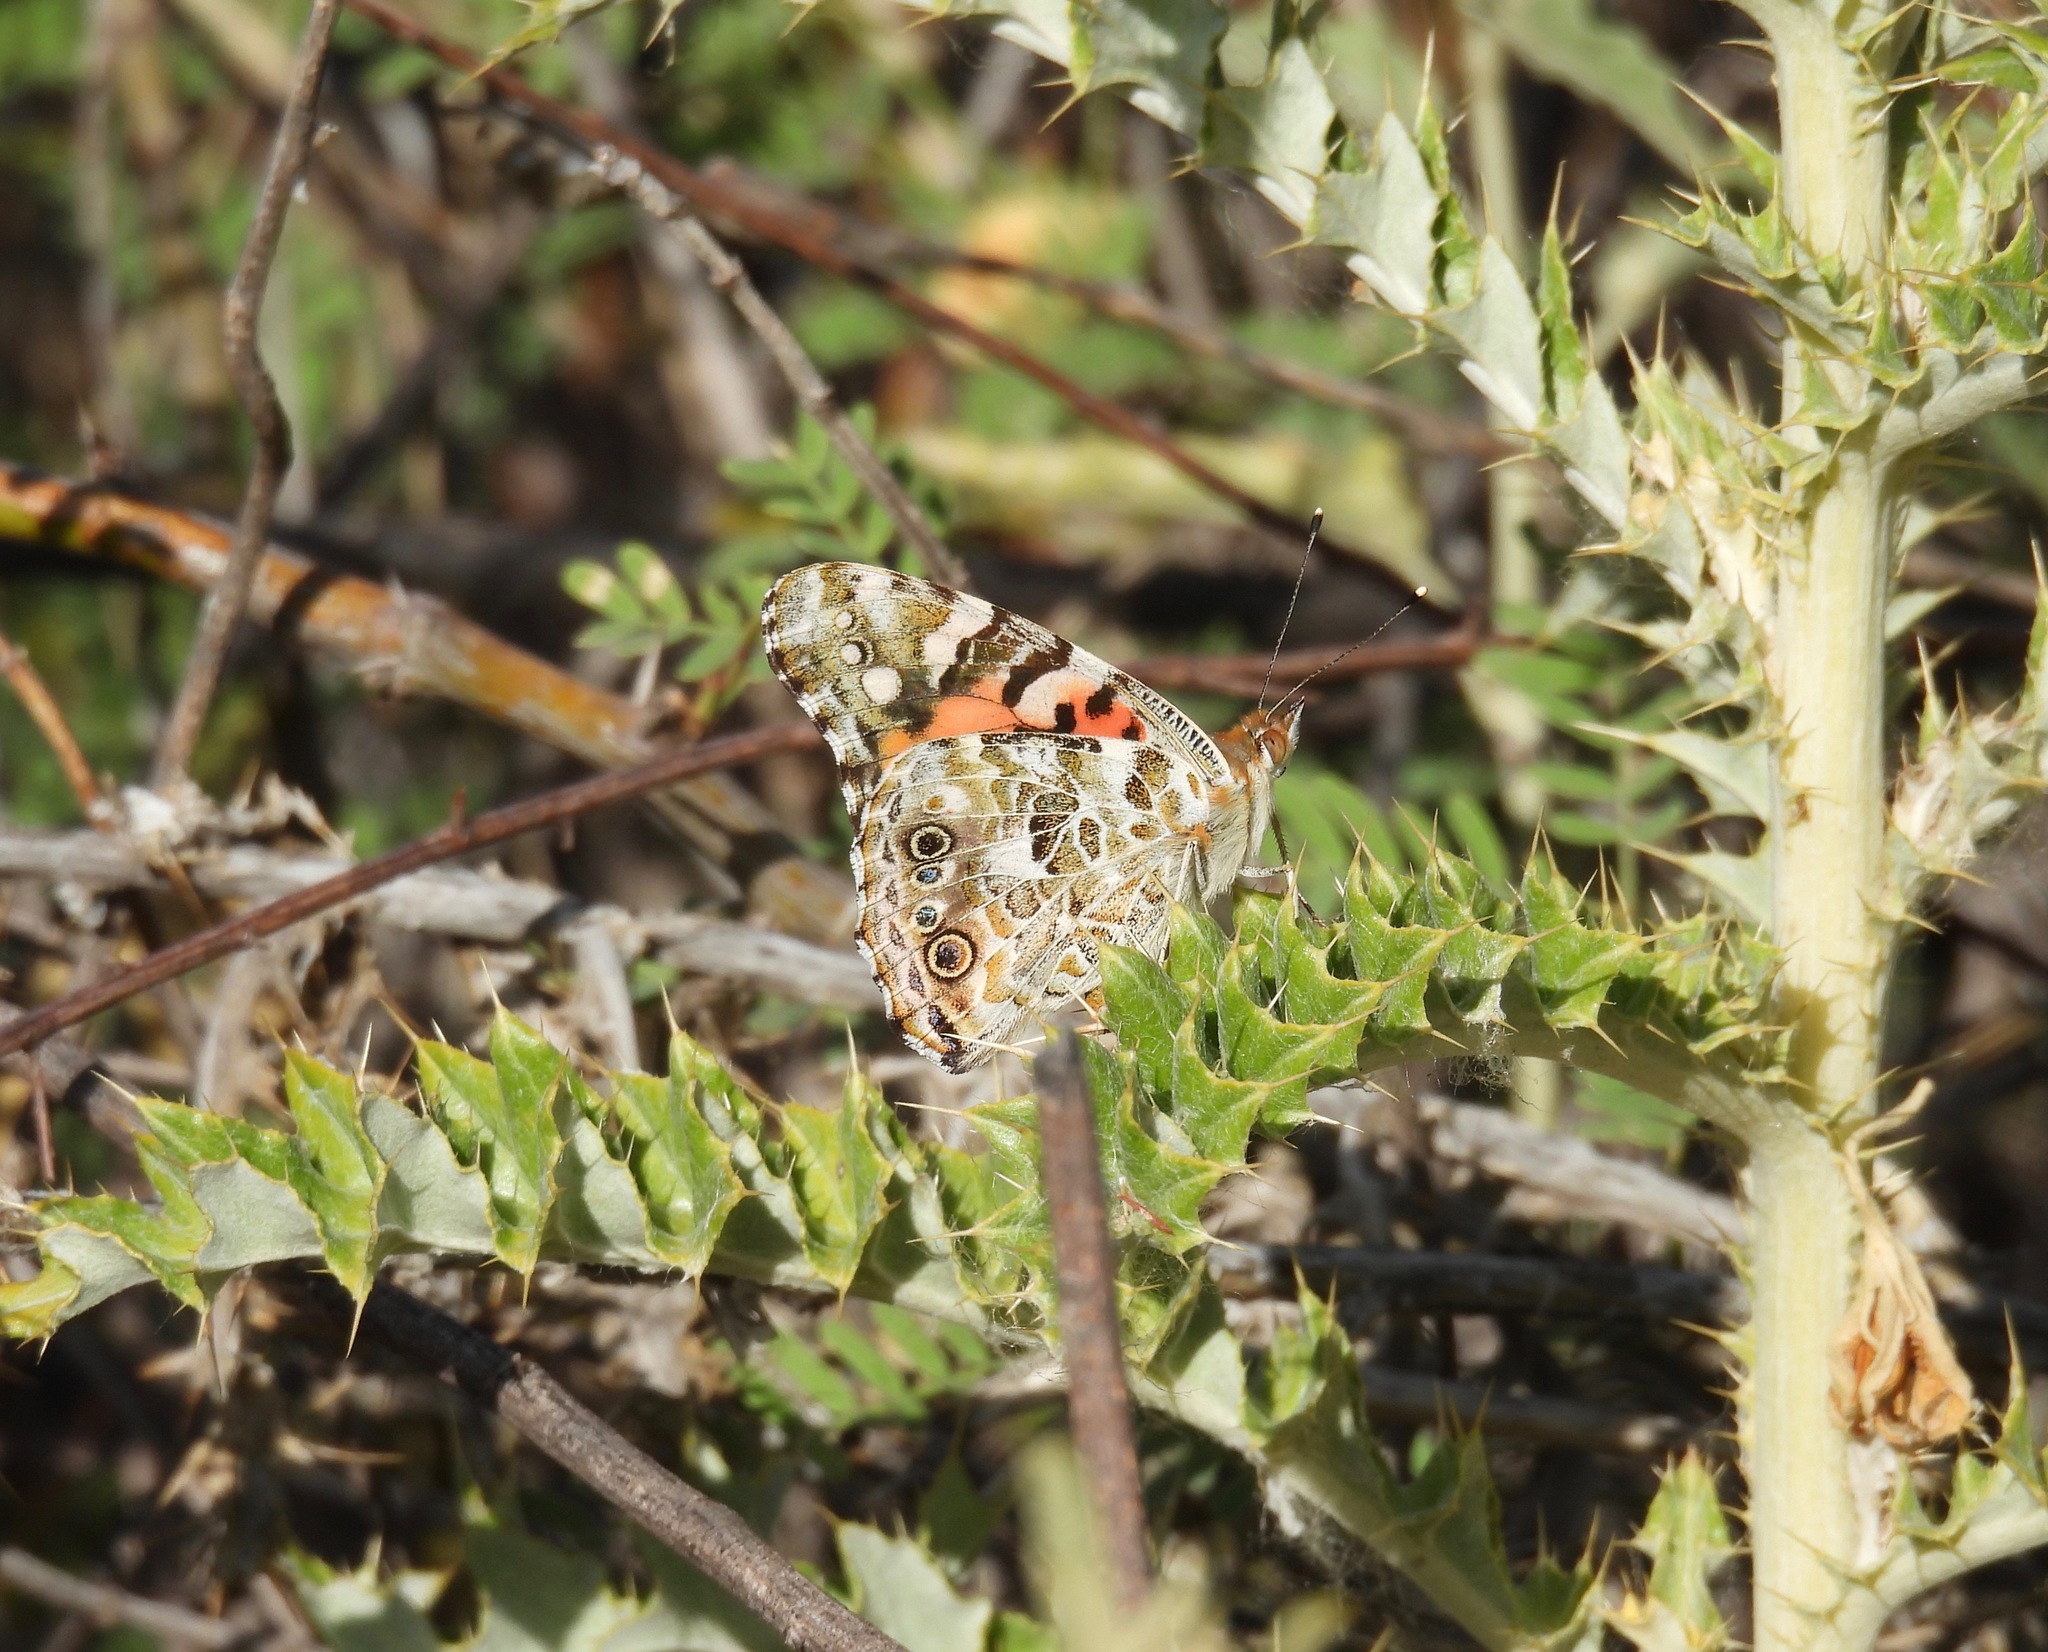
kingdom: Animalia
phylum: Arthropoda
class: Insecta
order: Lepidoptera
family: Nymphalidae
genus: Vanessa
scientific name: Vanessa cardui
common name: Painted lady
